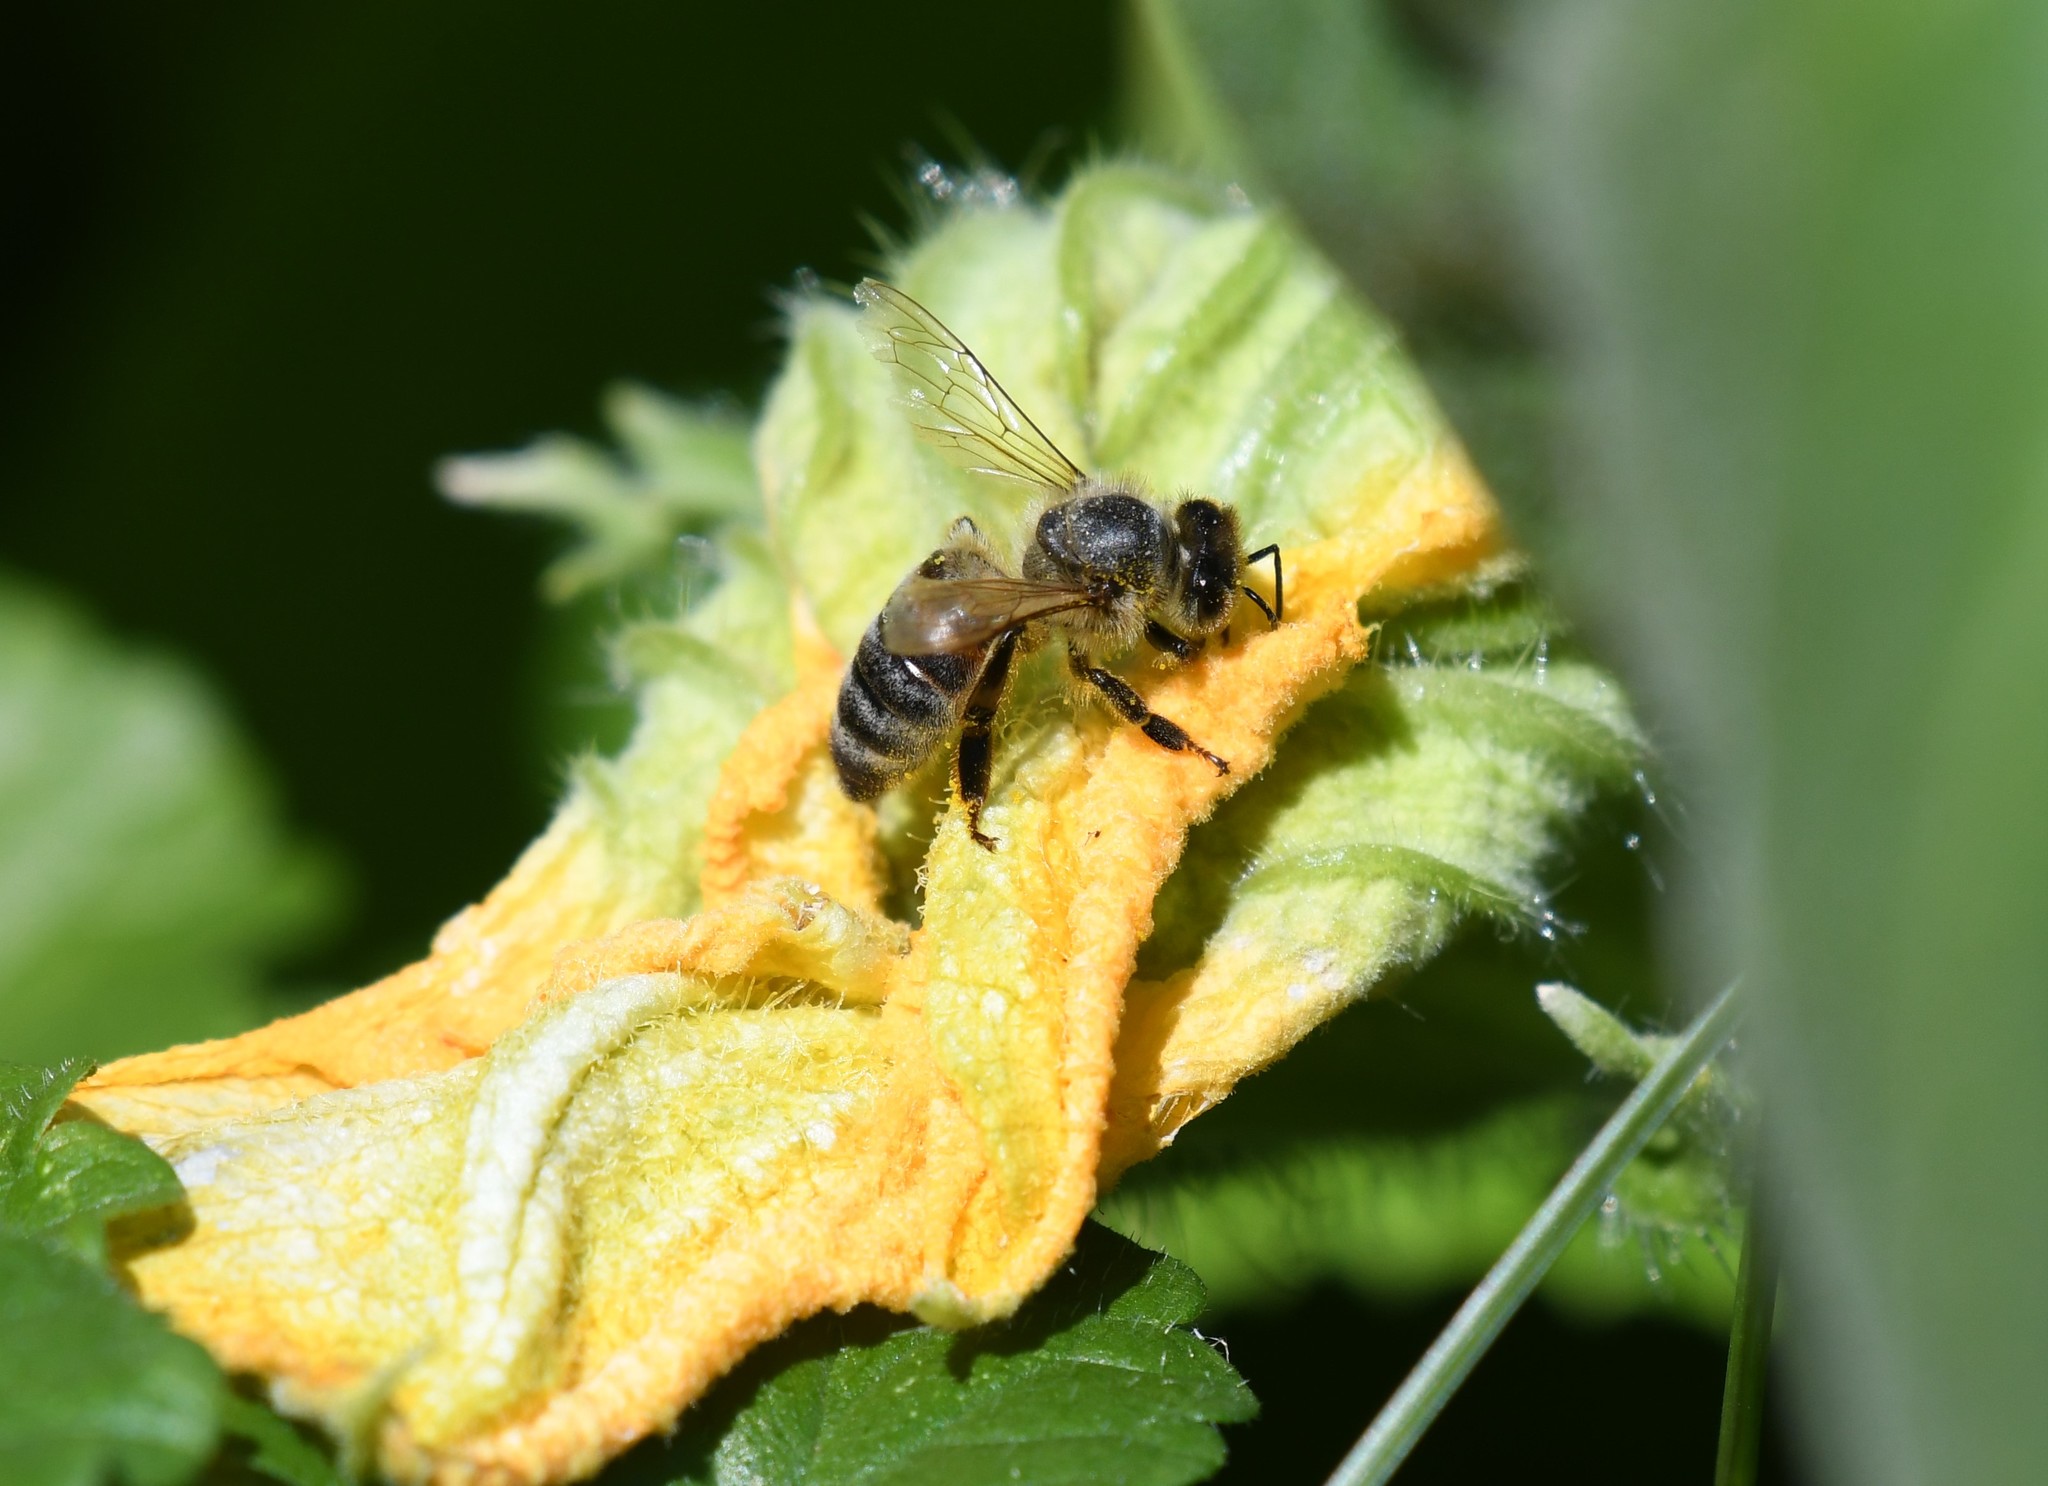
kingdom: Animalia
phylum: Arthropoda
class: Insecta
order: Hymenoptera
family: Apidae
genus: Apis
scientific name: Apis mellifera
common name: Honey bee
